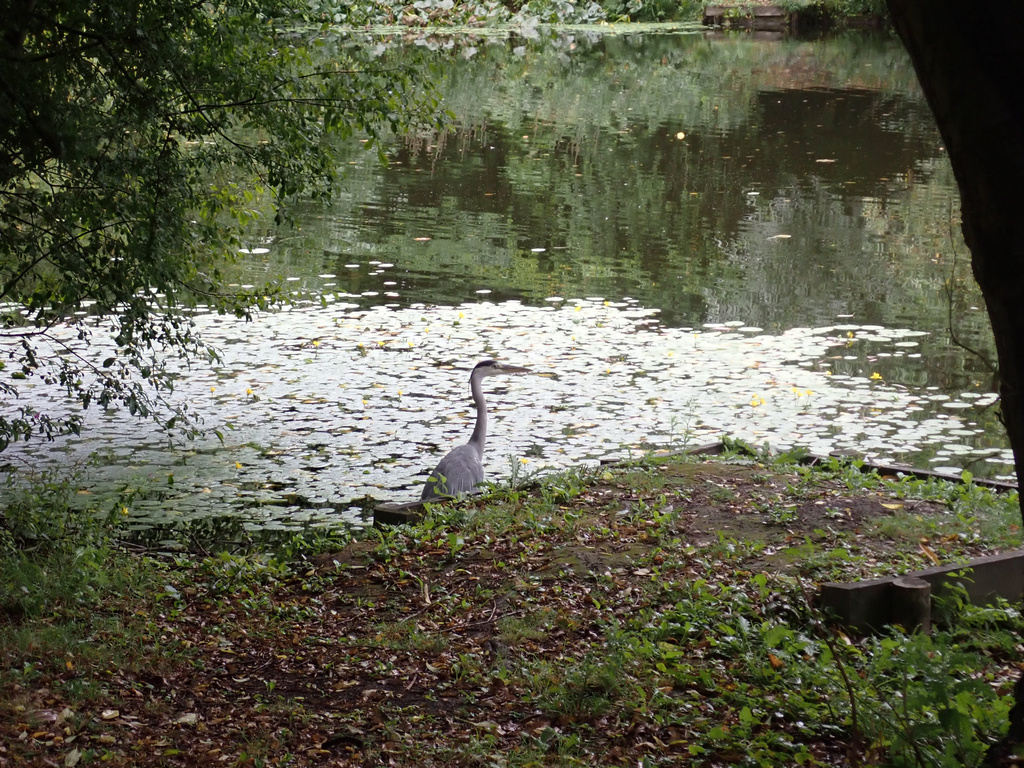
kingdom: Animalia
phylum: Chordata
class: Aves
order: Pelecaniformes
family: Ardeidae
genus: Ardea
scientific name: Ardea cinerea
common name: Grey heron
